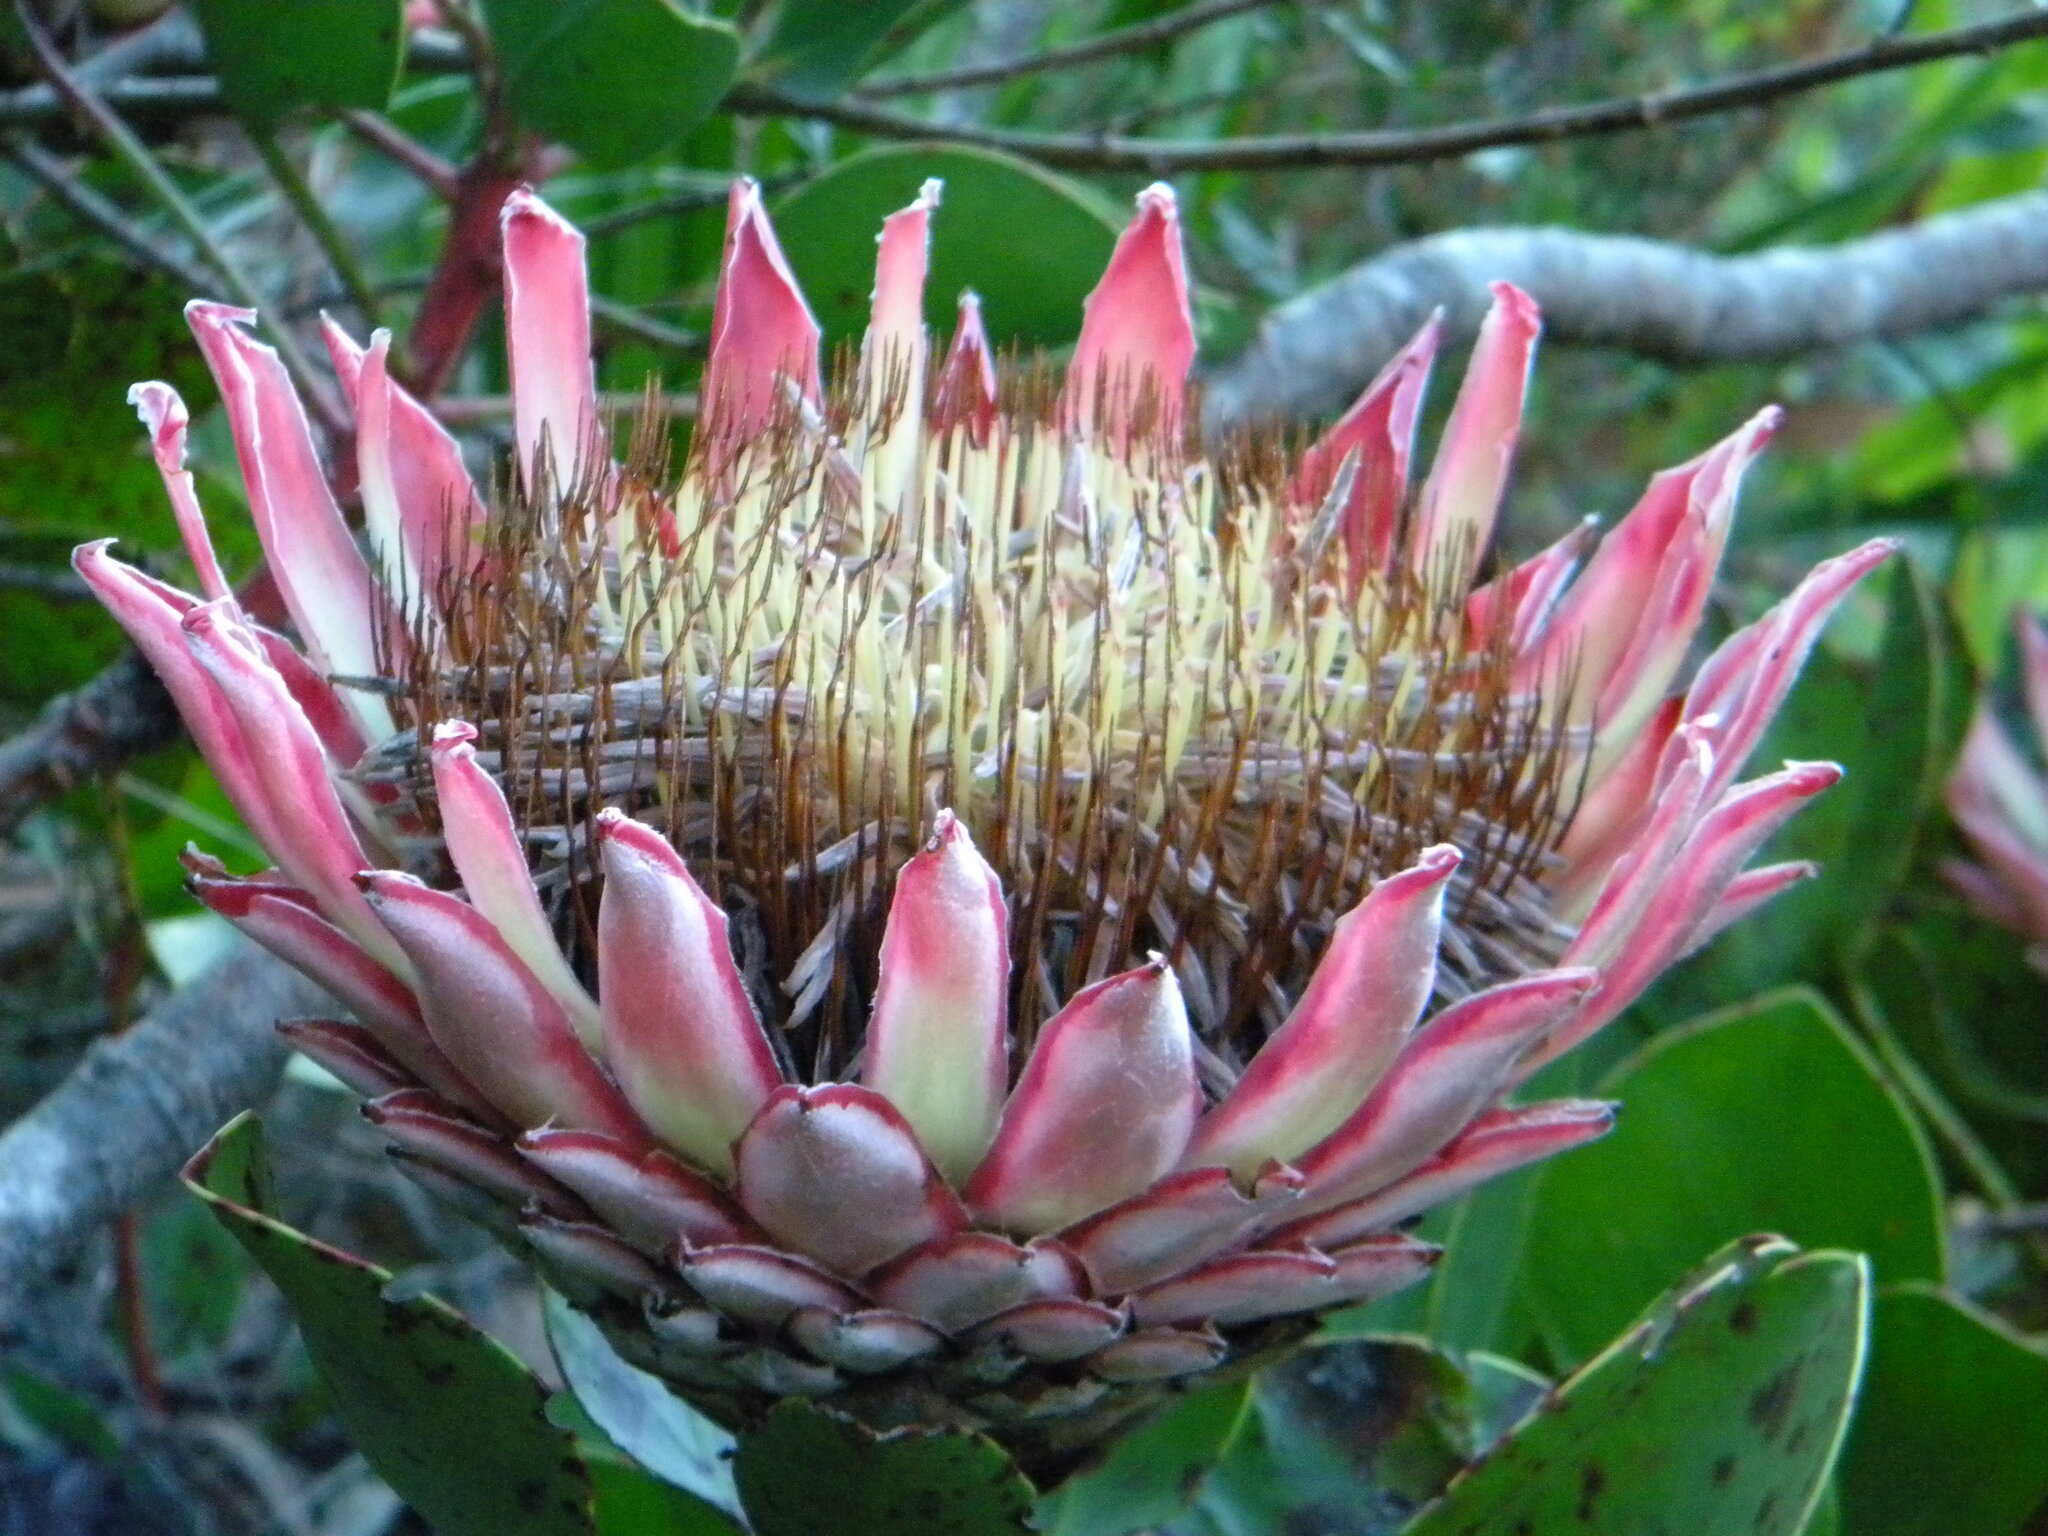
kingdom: Plantae
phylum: Tracheophyta
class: Magnoliopsida
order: Proteales
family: Proteaceae
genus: Protea
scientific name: Protea cynaroides
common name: King protea
